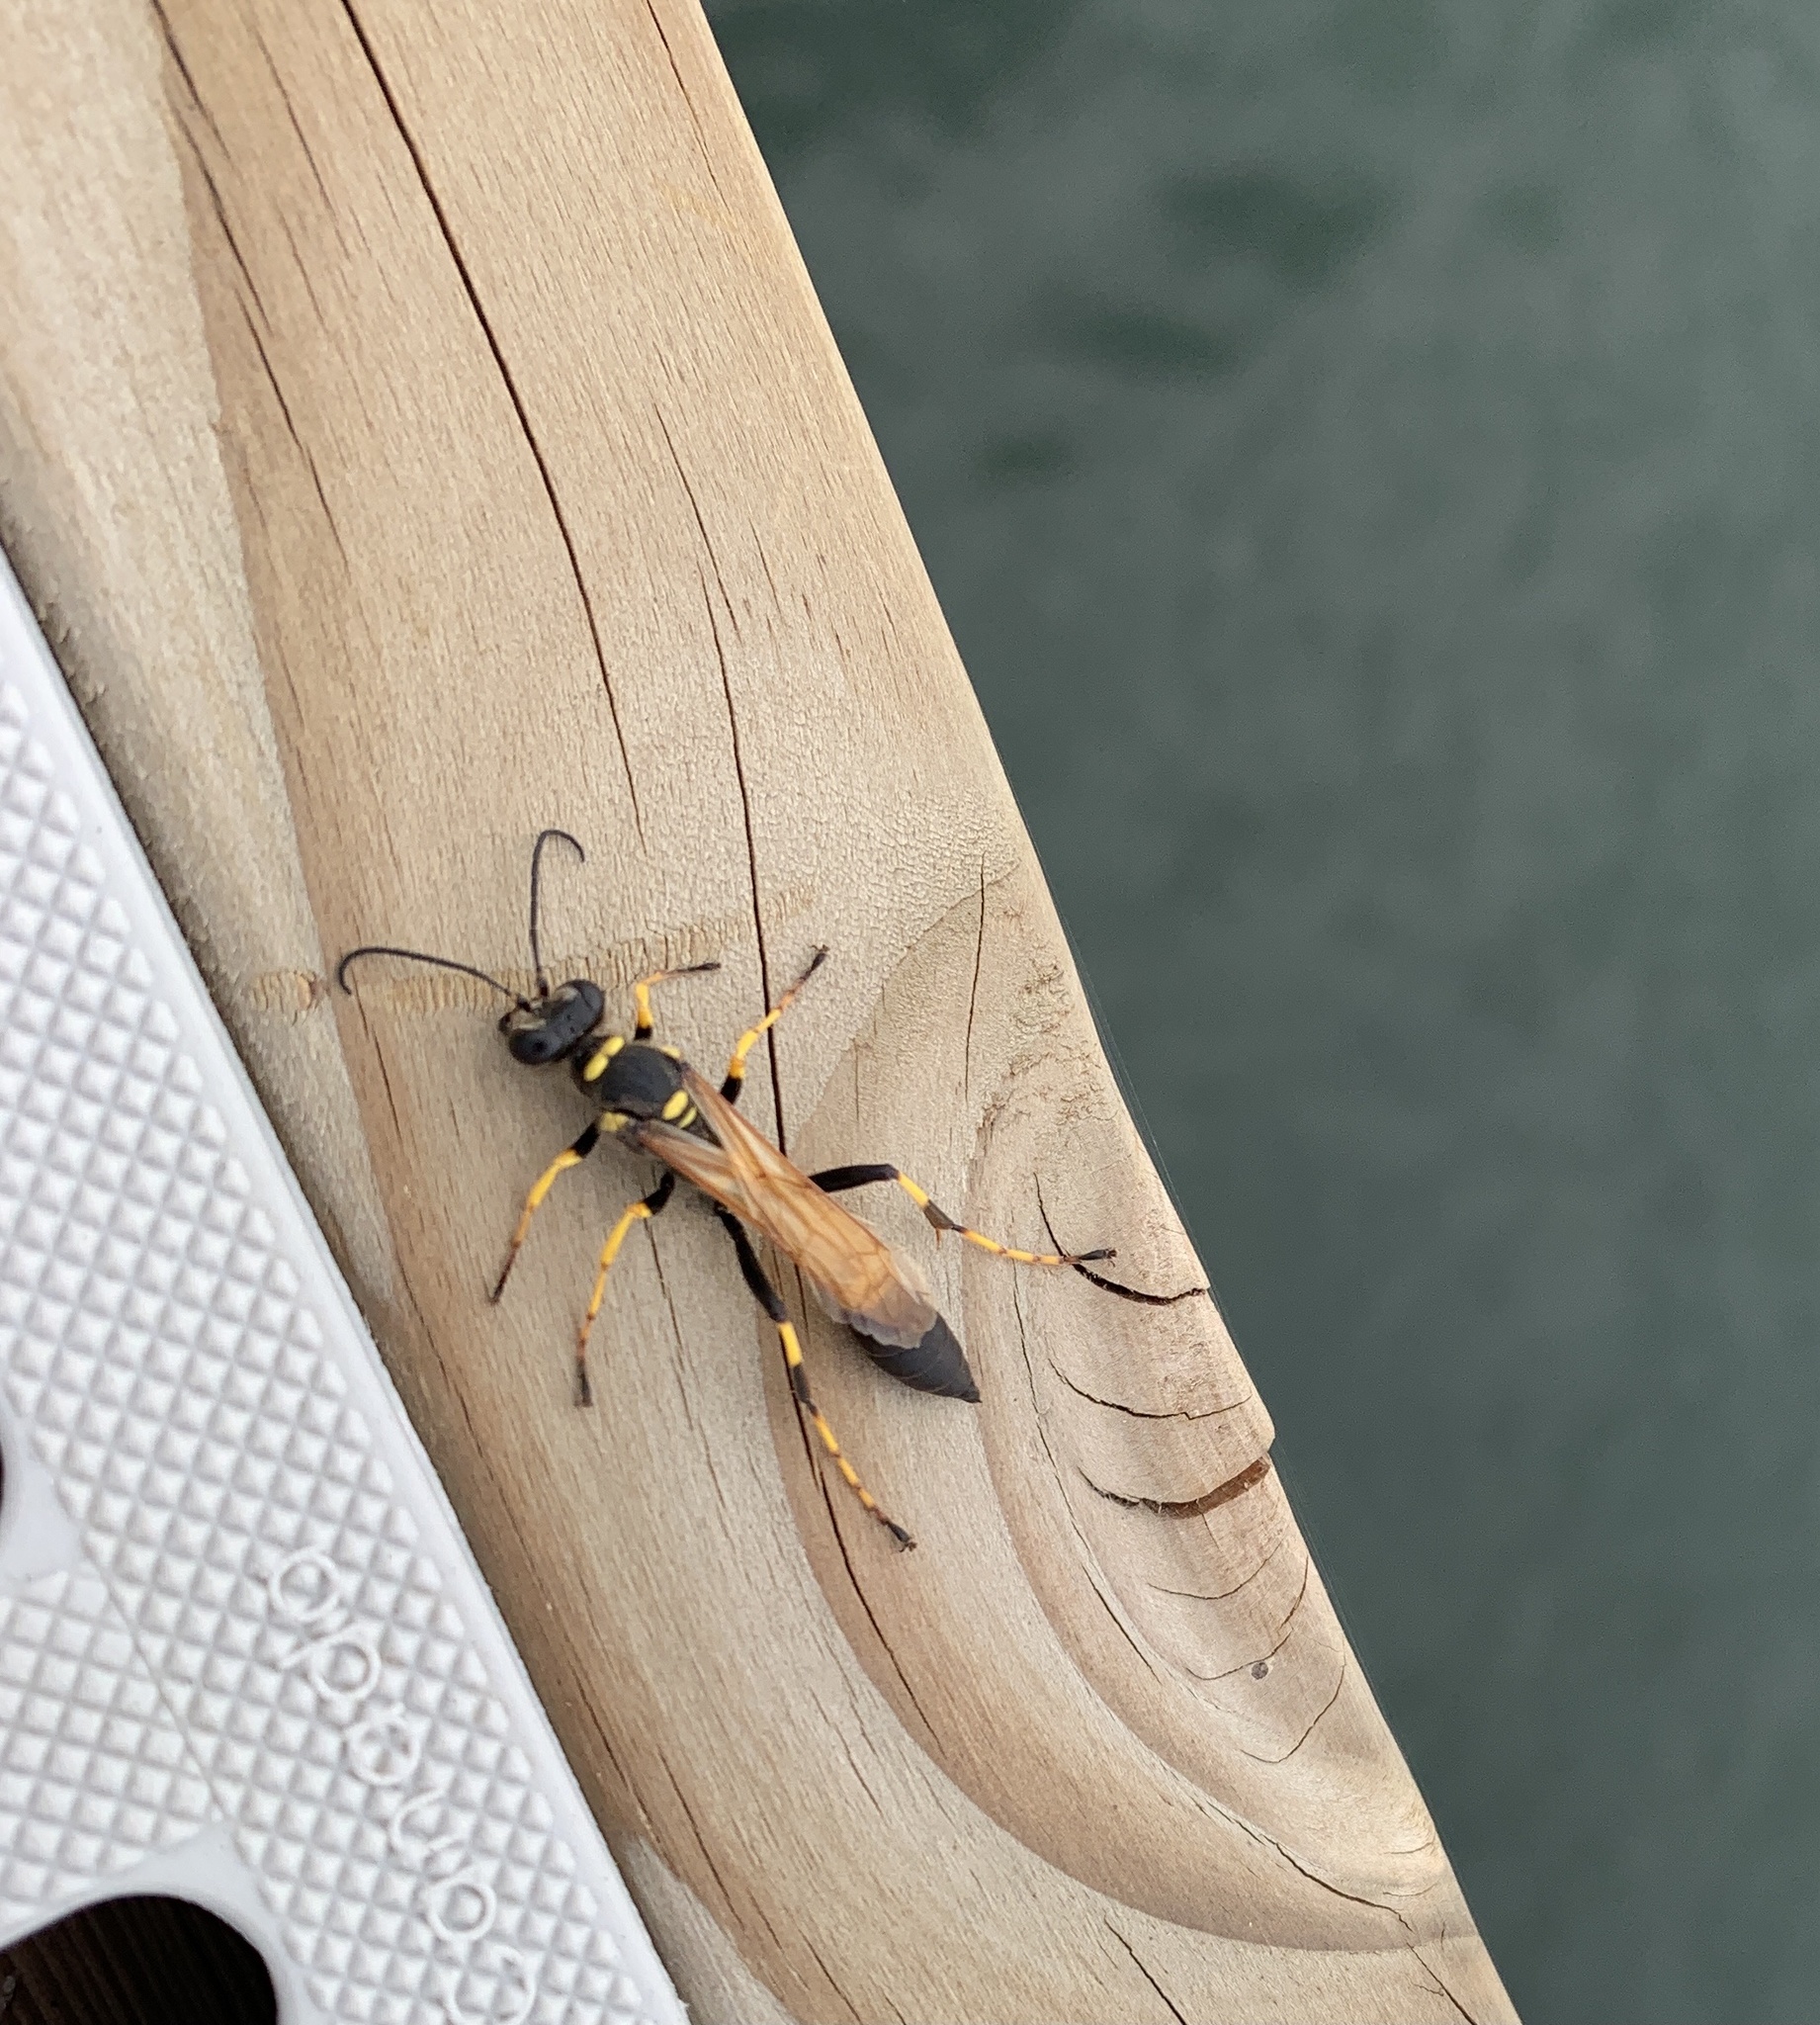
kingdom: Animalia
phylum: Arthropoda
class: Insecta
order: Hymenoptera
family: Sphecidae
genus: Sceliphron
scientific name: Sceliphron caementarium
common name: Mud dauber
